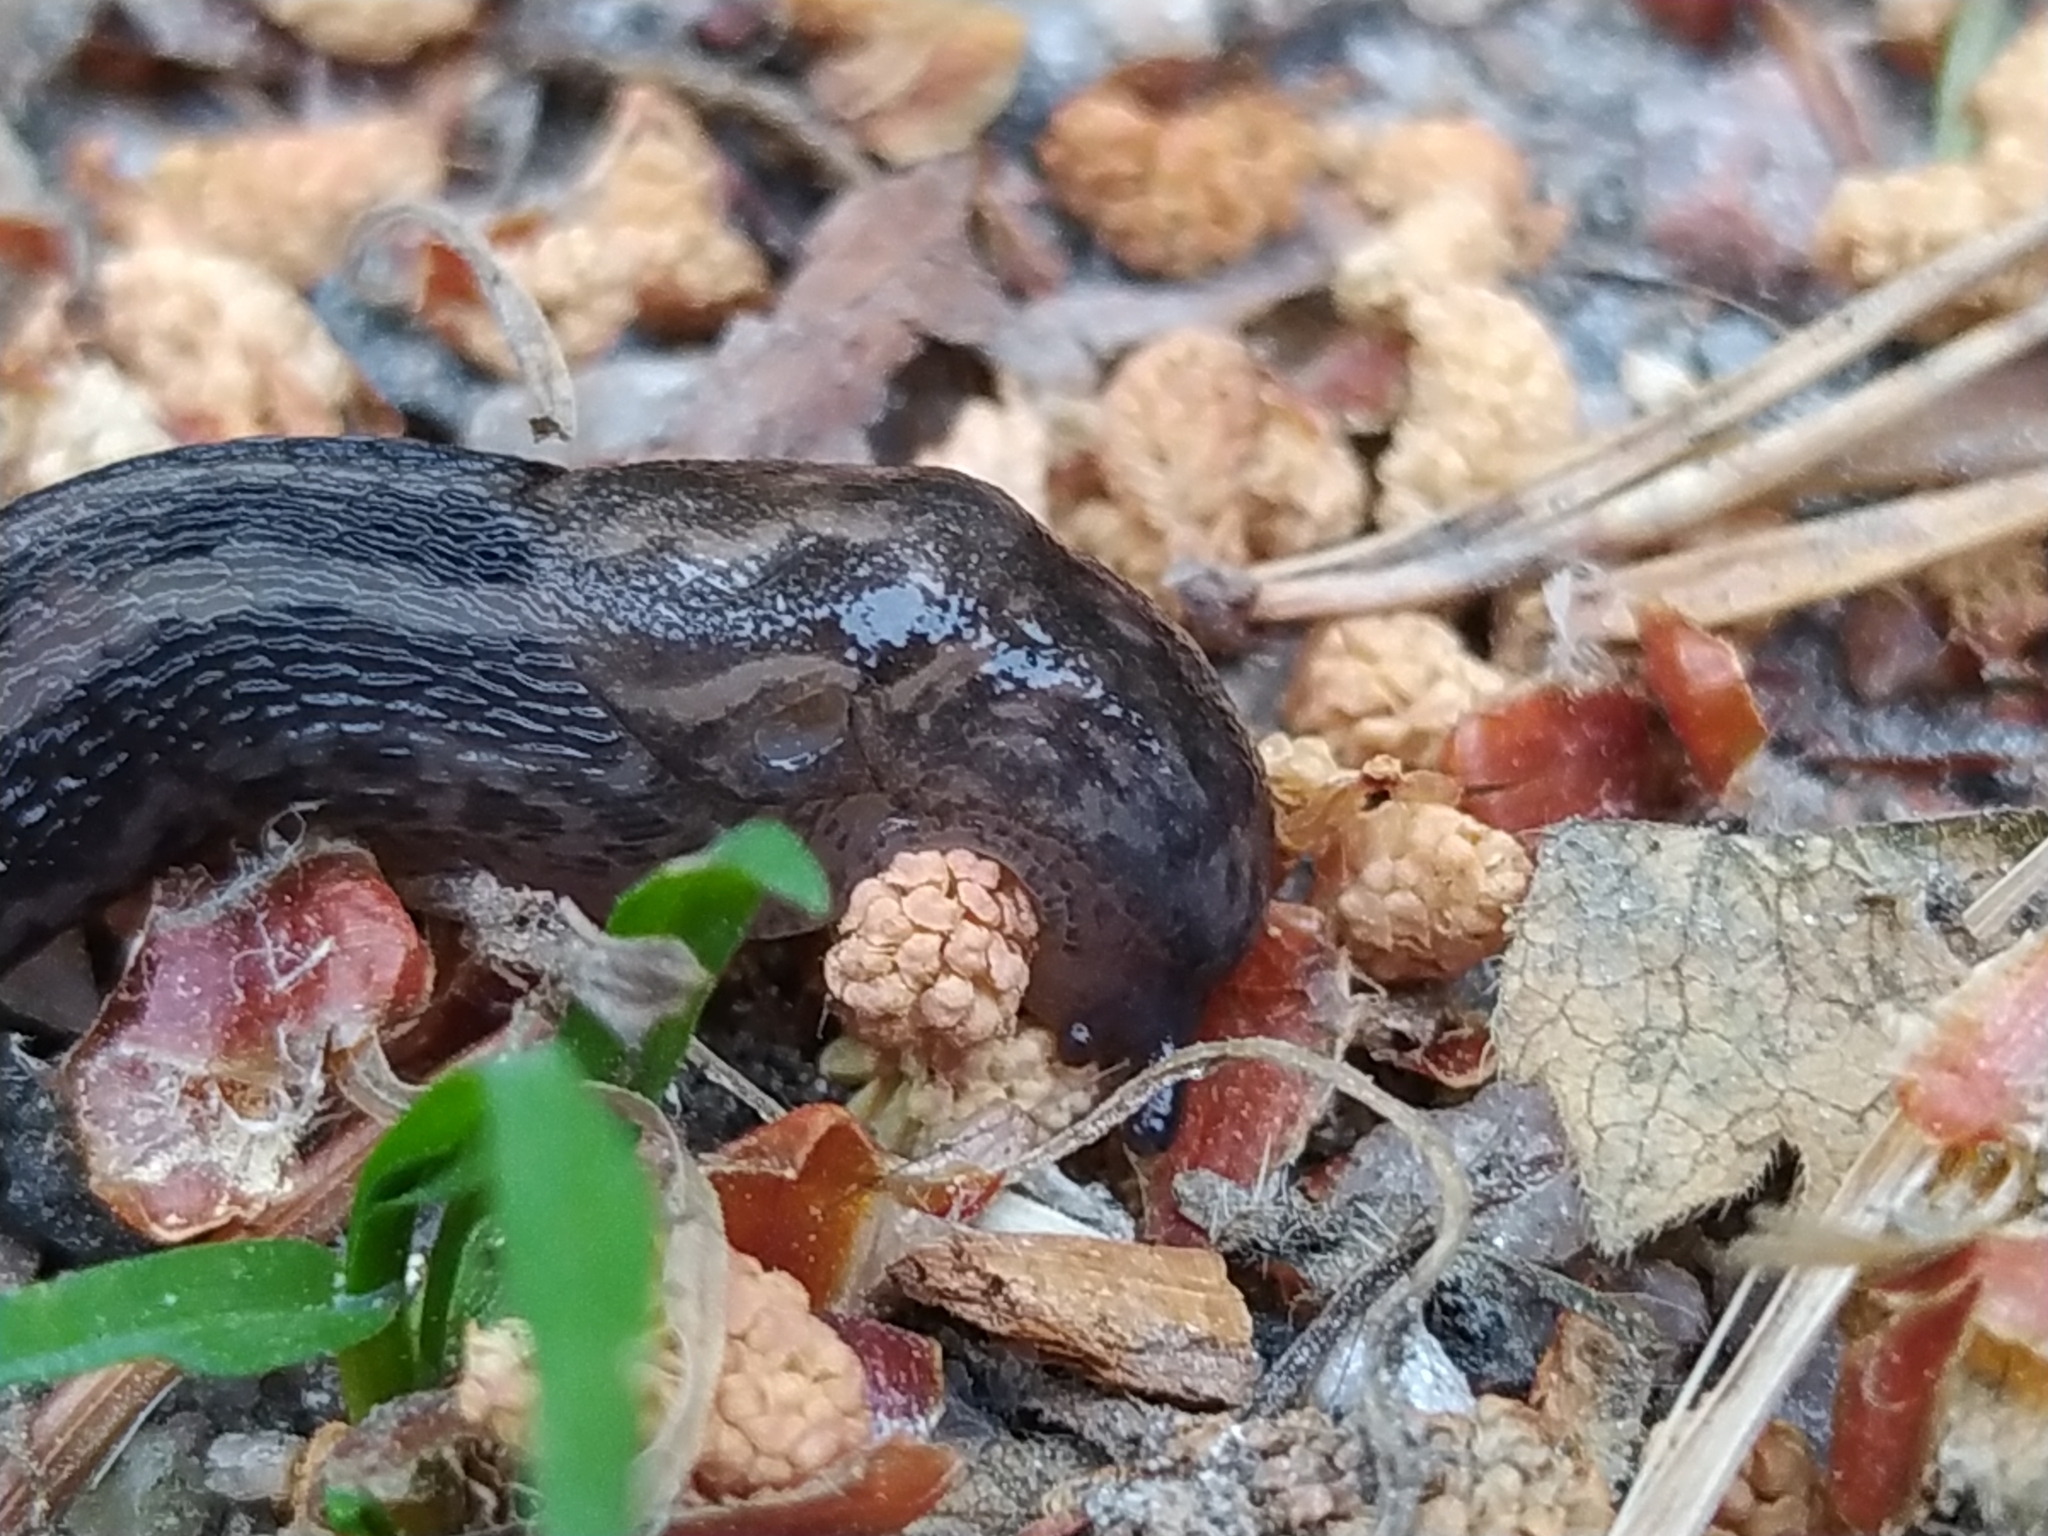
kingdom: Animalia
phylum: Mollusca
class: Gastropoda
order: Stylommatophora
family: Limacidae
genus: Limax
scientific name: Limax maximus
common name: Great grey slug
